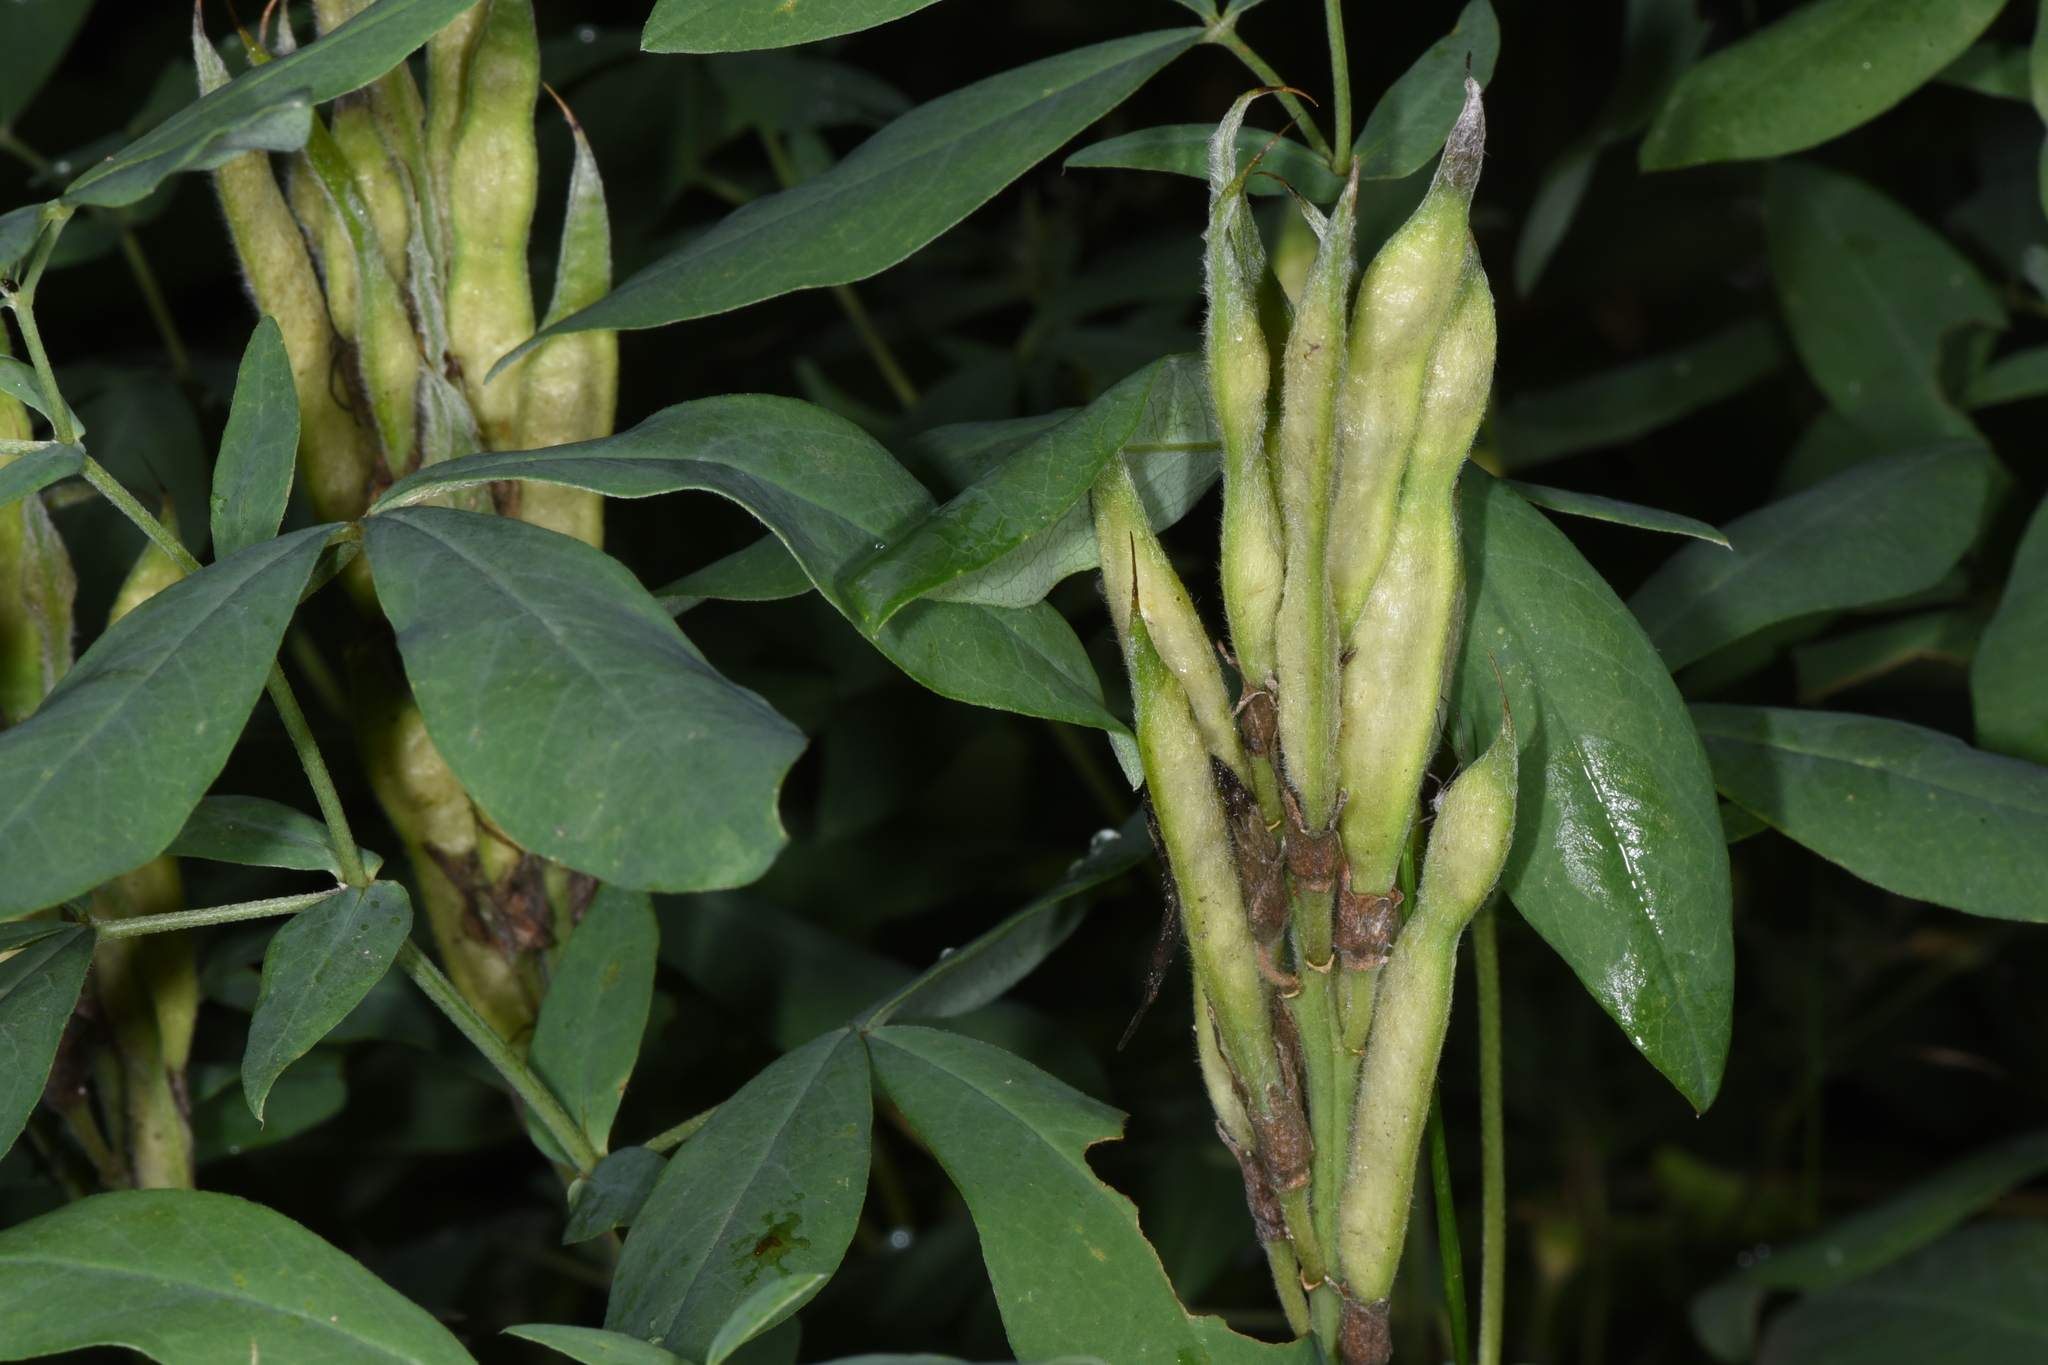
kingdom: Plantae
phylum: Tracheophyta
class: Magnoliopsida
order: Fabales
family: Fabaceae
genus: Thermopsis
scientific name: Thermopsis rhombifolia
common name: Circle-pod-pea
